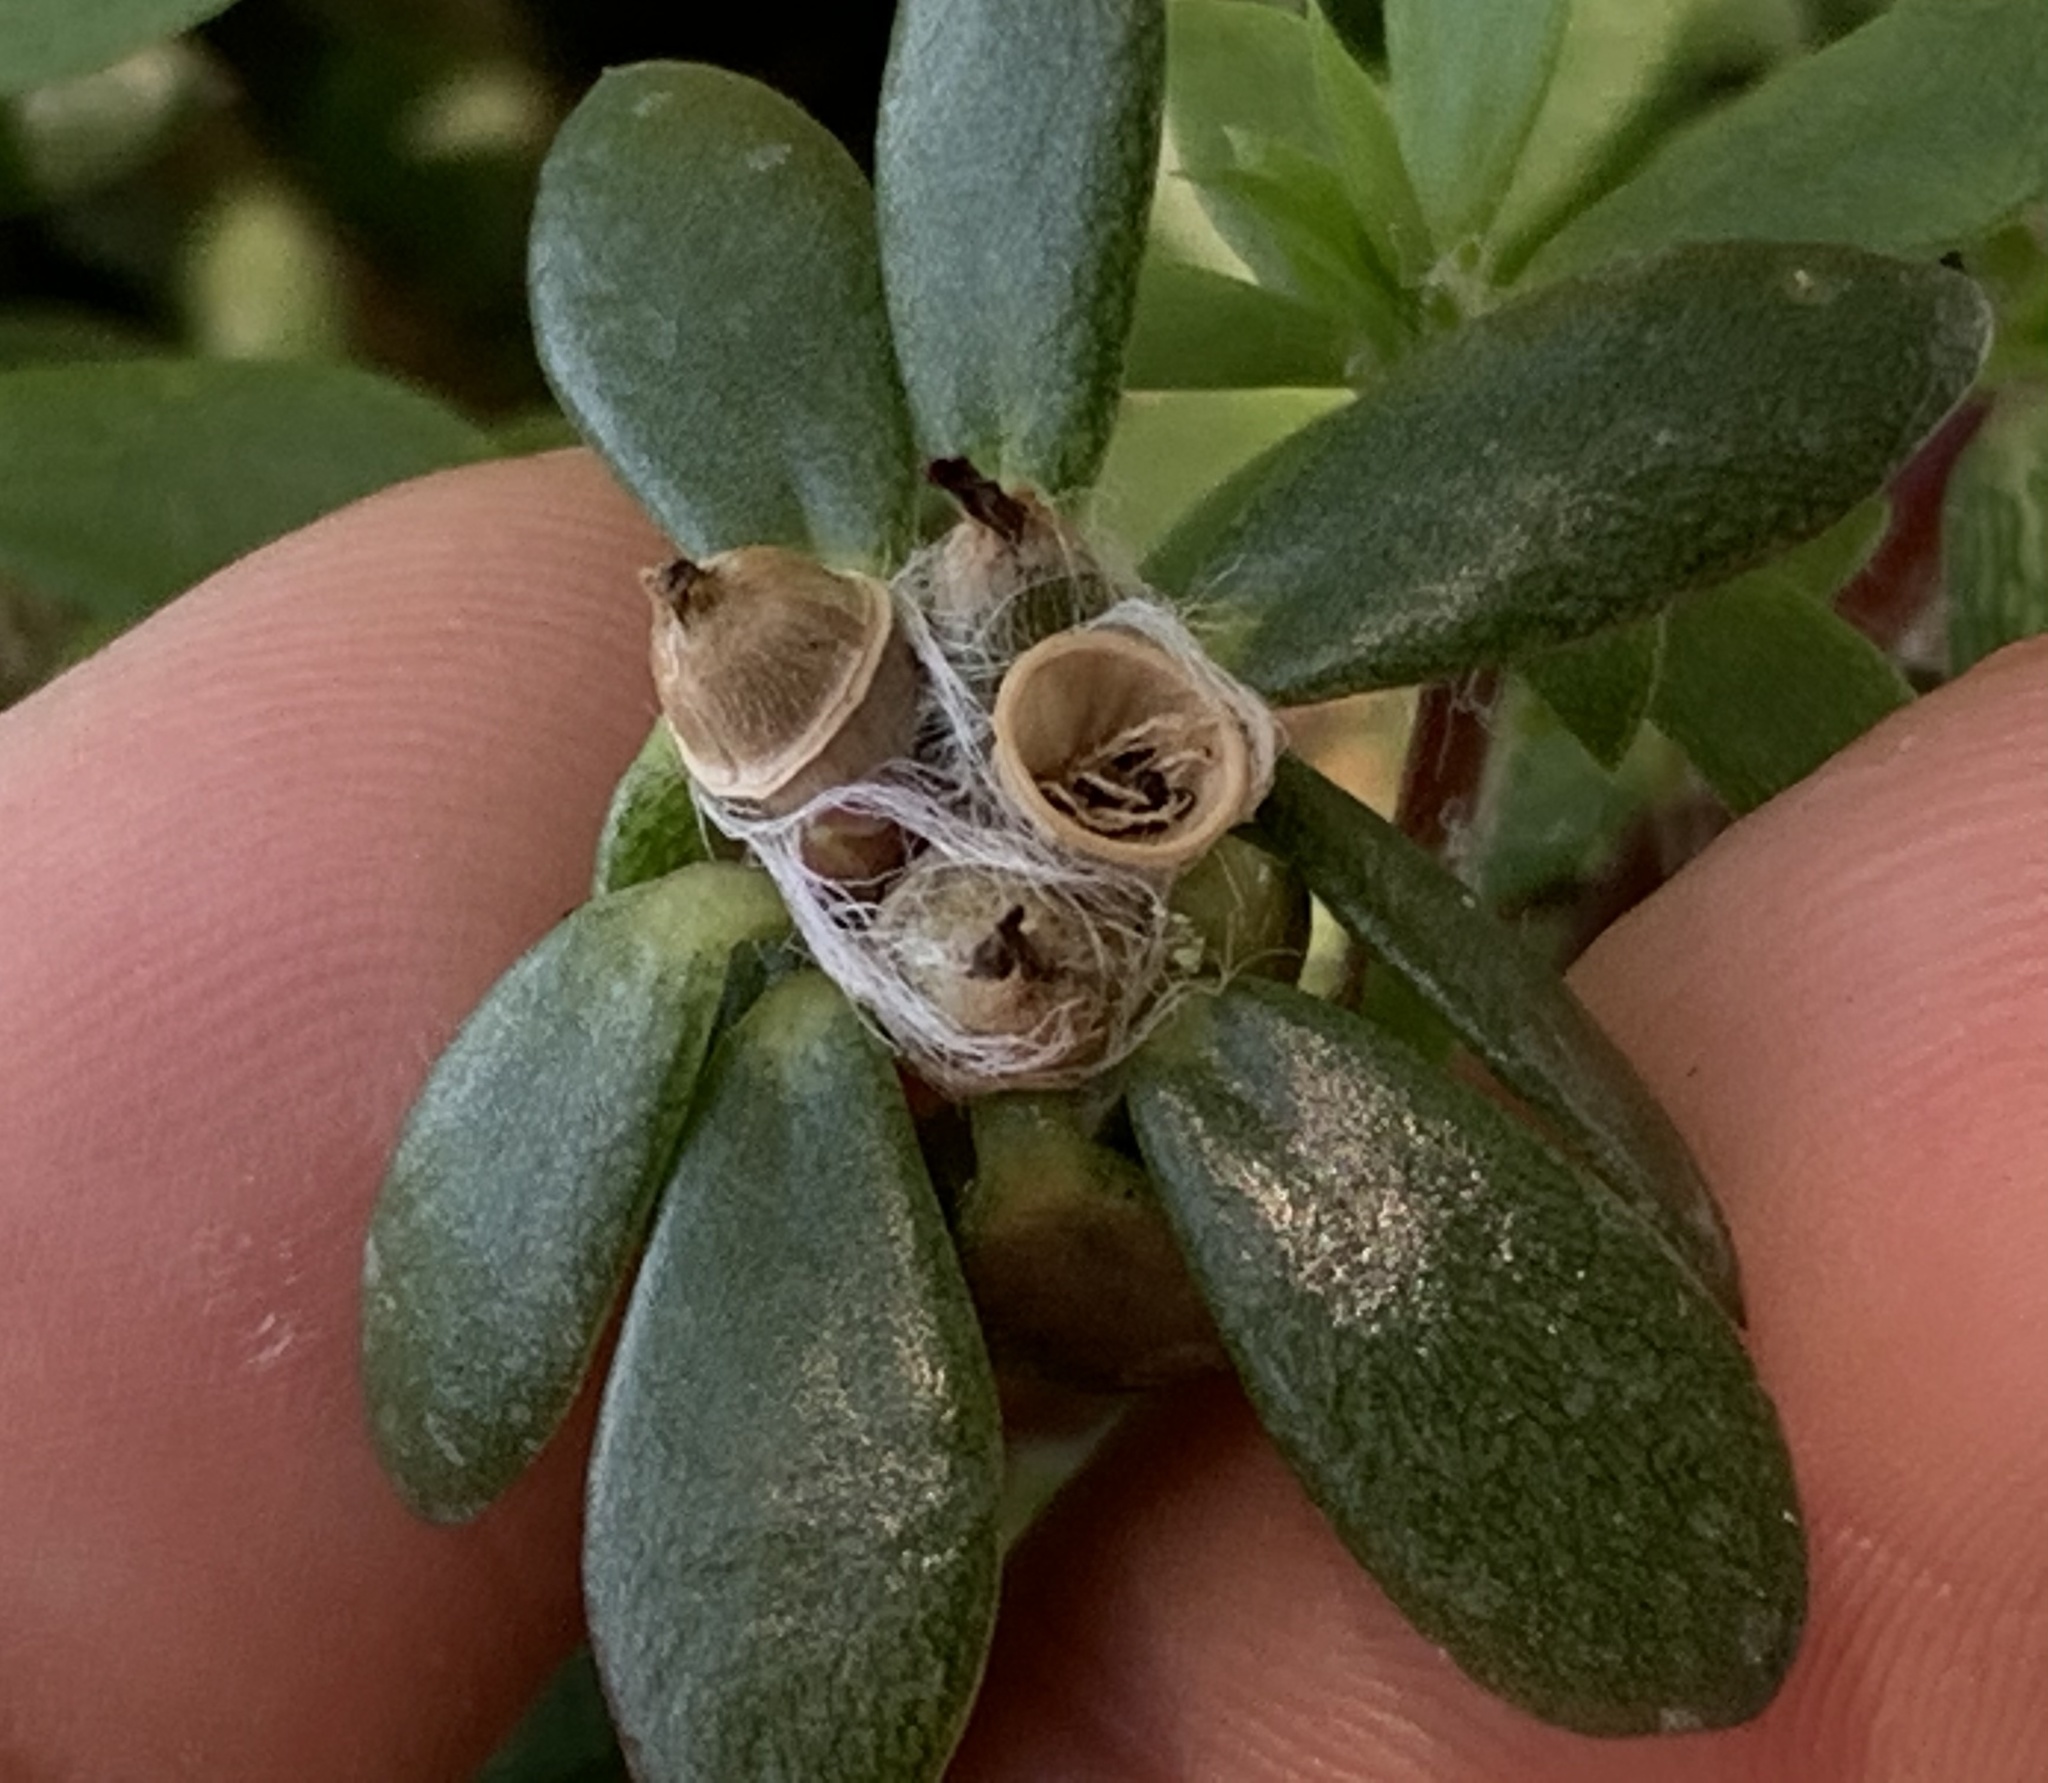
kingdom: Plantae
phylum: Tracheophyta
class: Magnoliopsida
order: Caryophyllales
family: Portulacaceae
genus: Portulaca
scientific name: Portulaca amilis
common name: Paraguayan purslane
